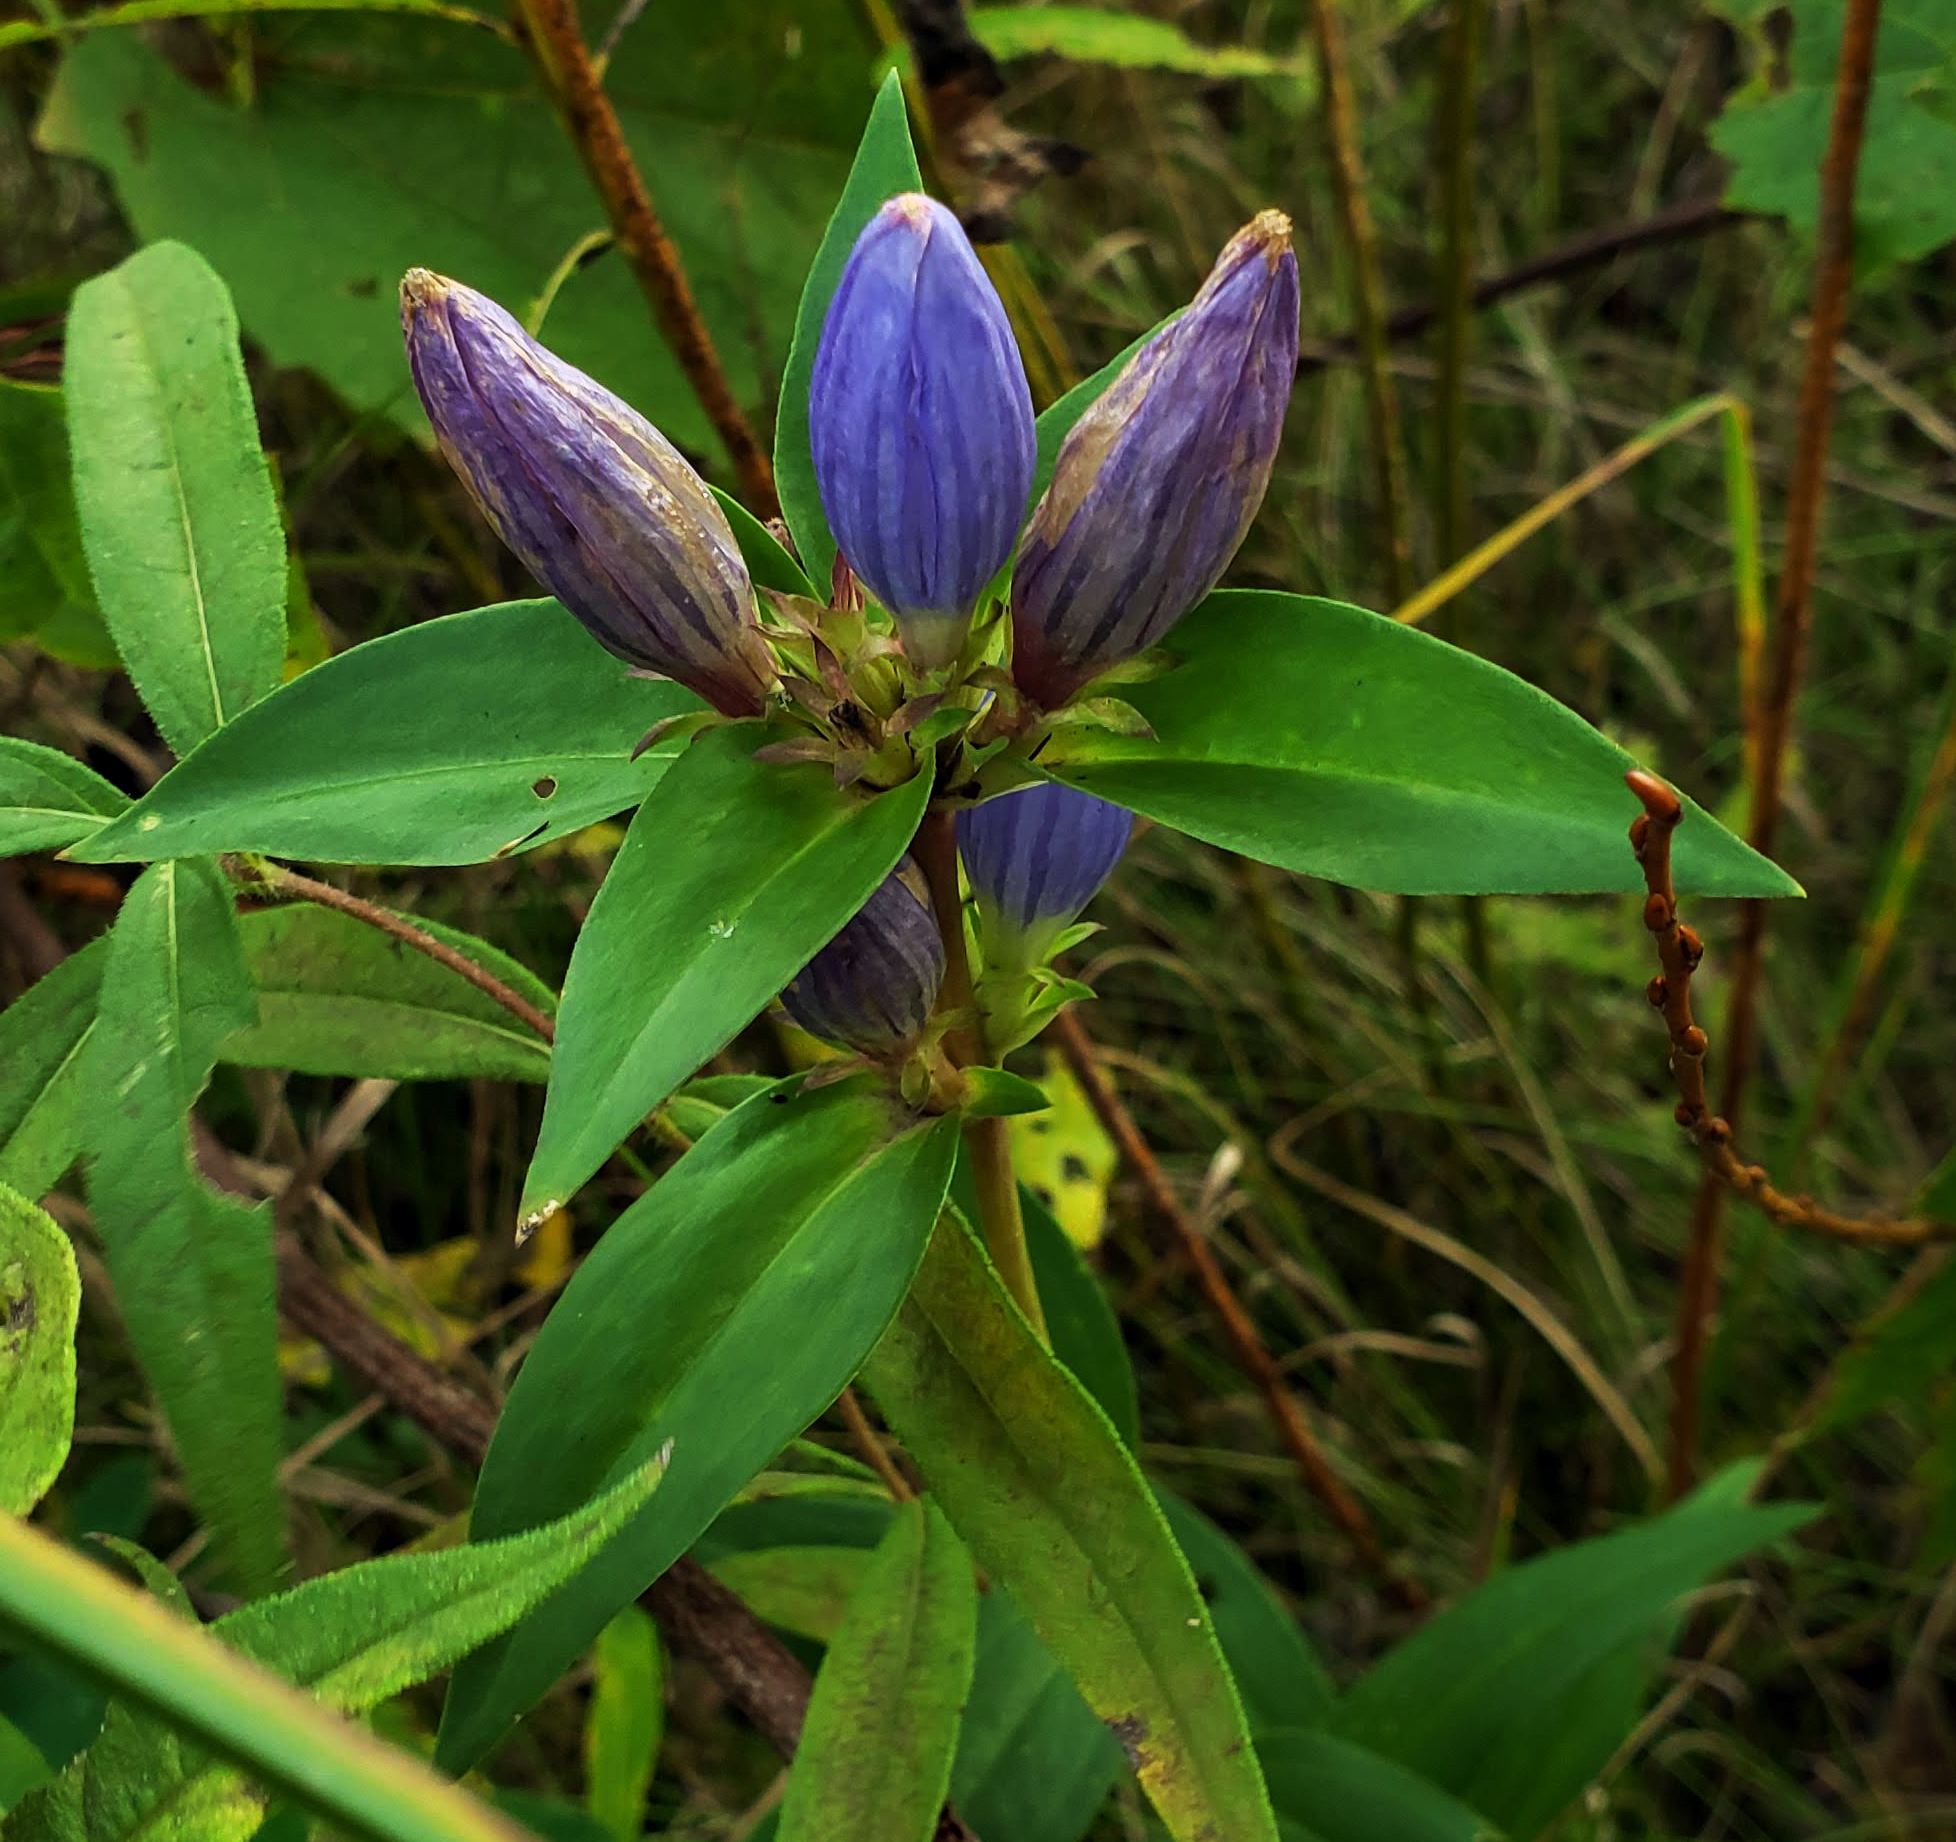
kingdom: Plantae
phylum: Tracheophyta
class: Magnoliopsida
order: Gentianales
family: Gentianaceae
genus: Gentiana
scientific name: Gentiana andrewsii
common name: Bottle gentian
